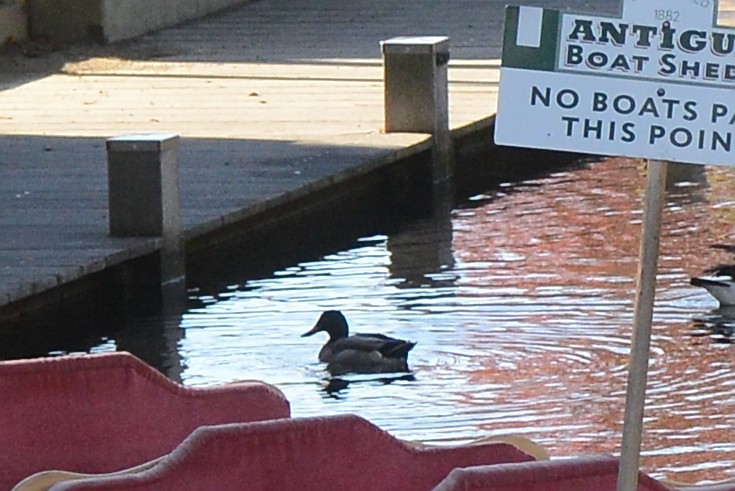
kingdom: Animalia
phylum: Chordata
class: Aves
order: Anseriformes
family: Anatidae
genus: Anas
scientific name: Anas platyrhynchos
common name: Mallard
